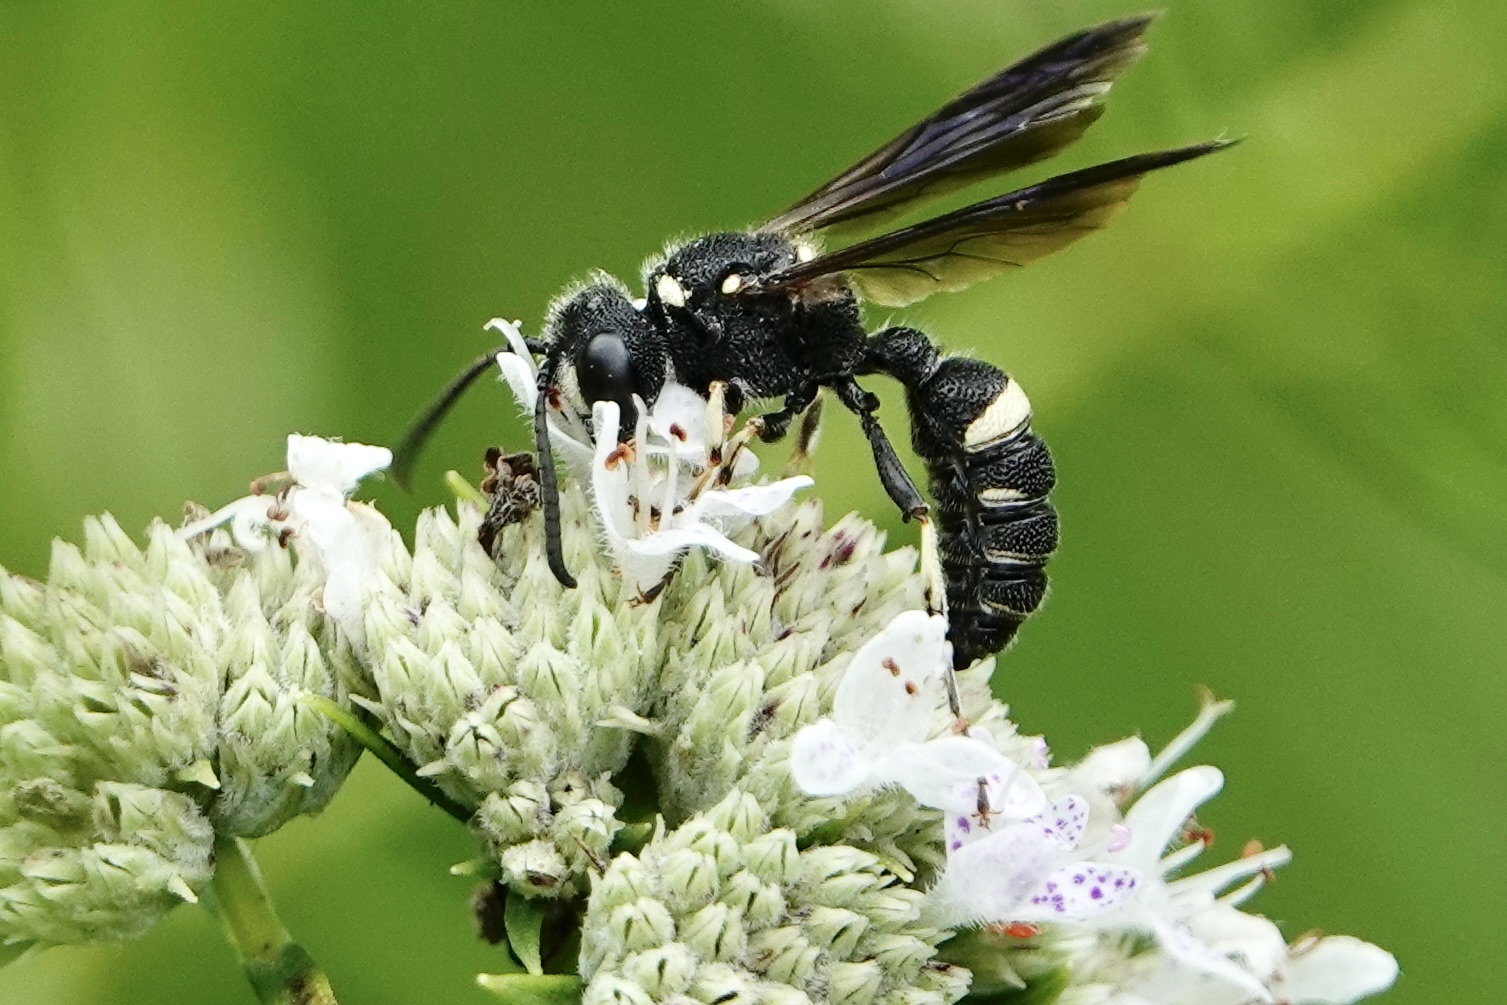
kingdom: Animalia
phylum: Arthropoda
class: Insecta
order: Hymenoptera
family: Crabronidae
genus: Cerceris
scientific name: Cerceris fumipennis
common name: Smokey-winged beetle bandit wasp
